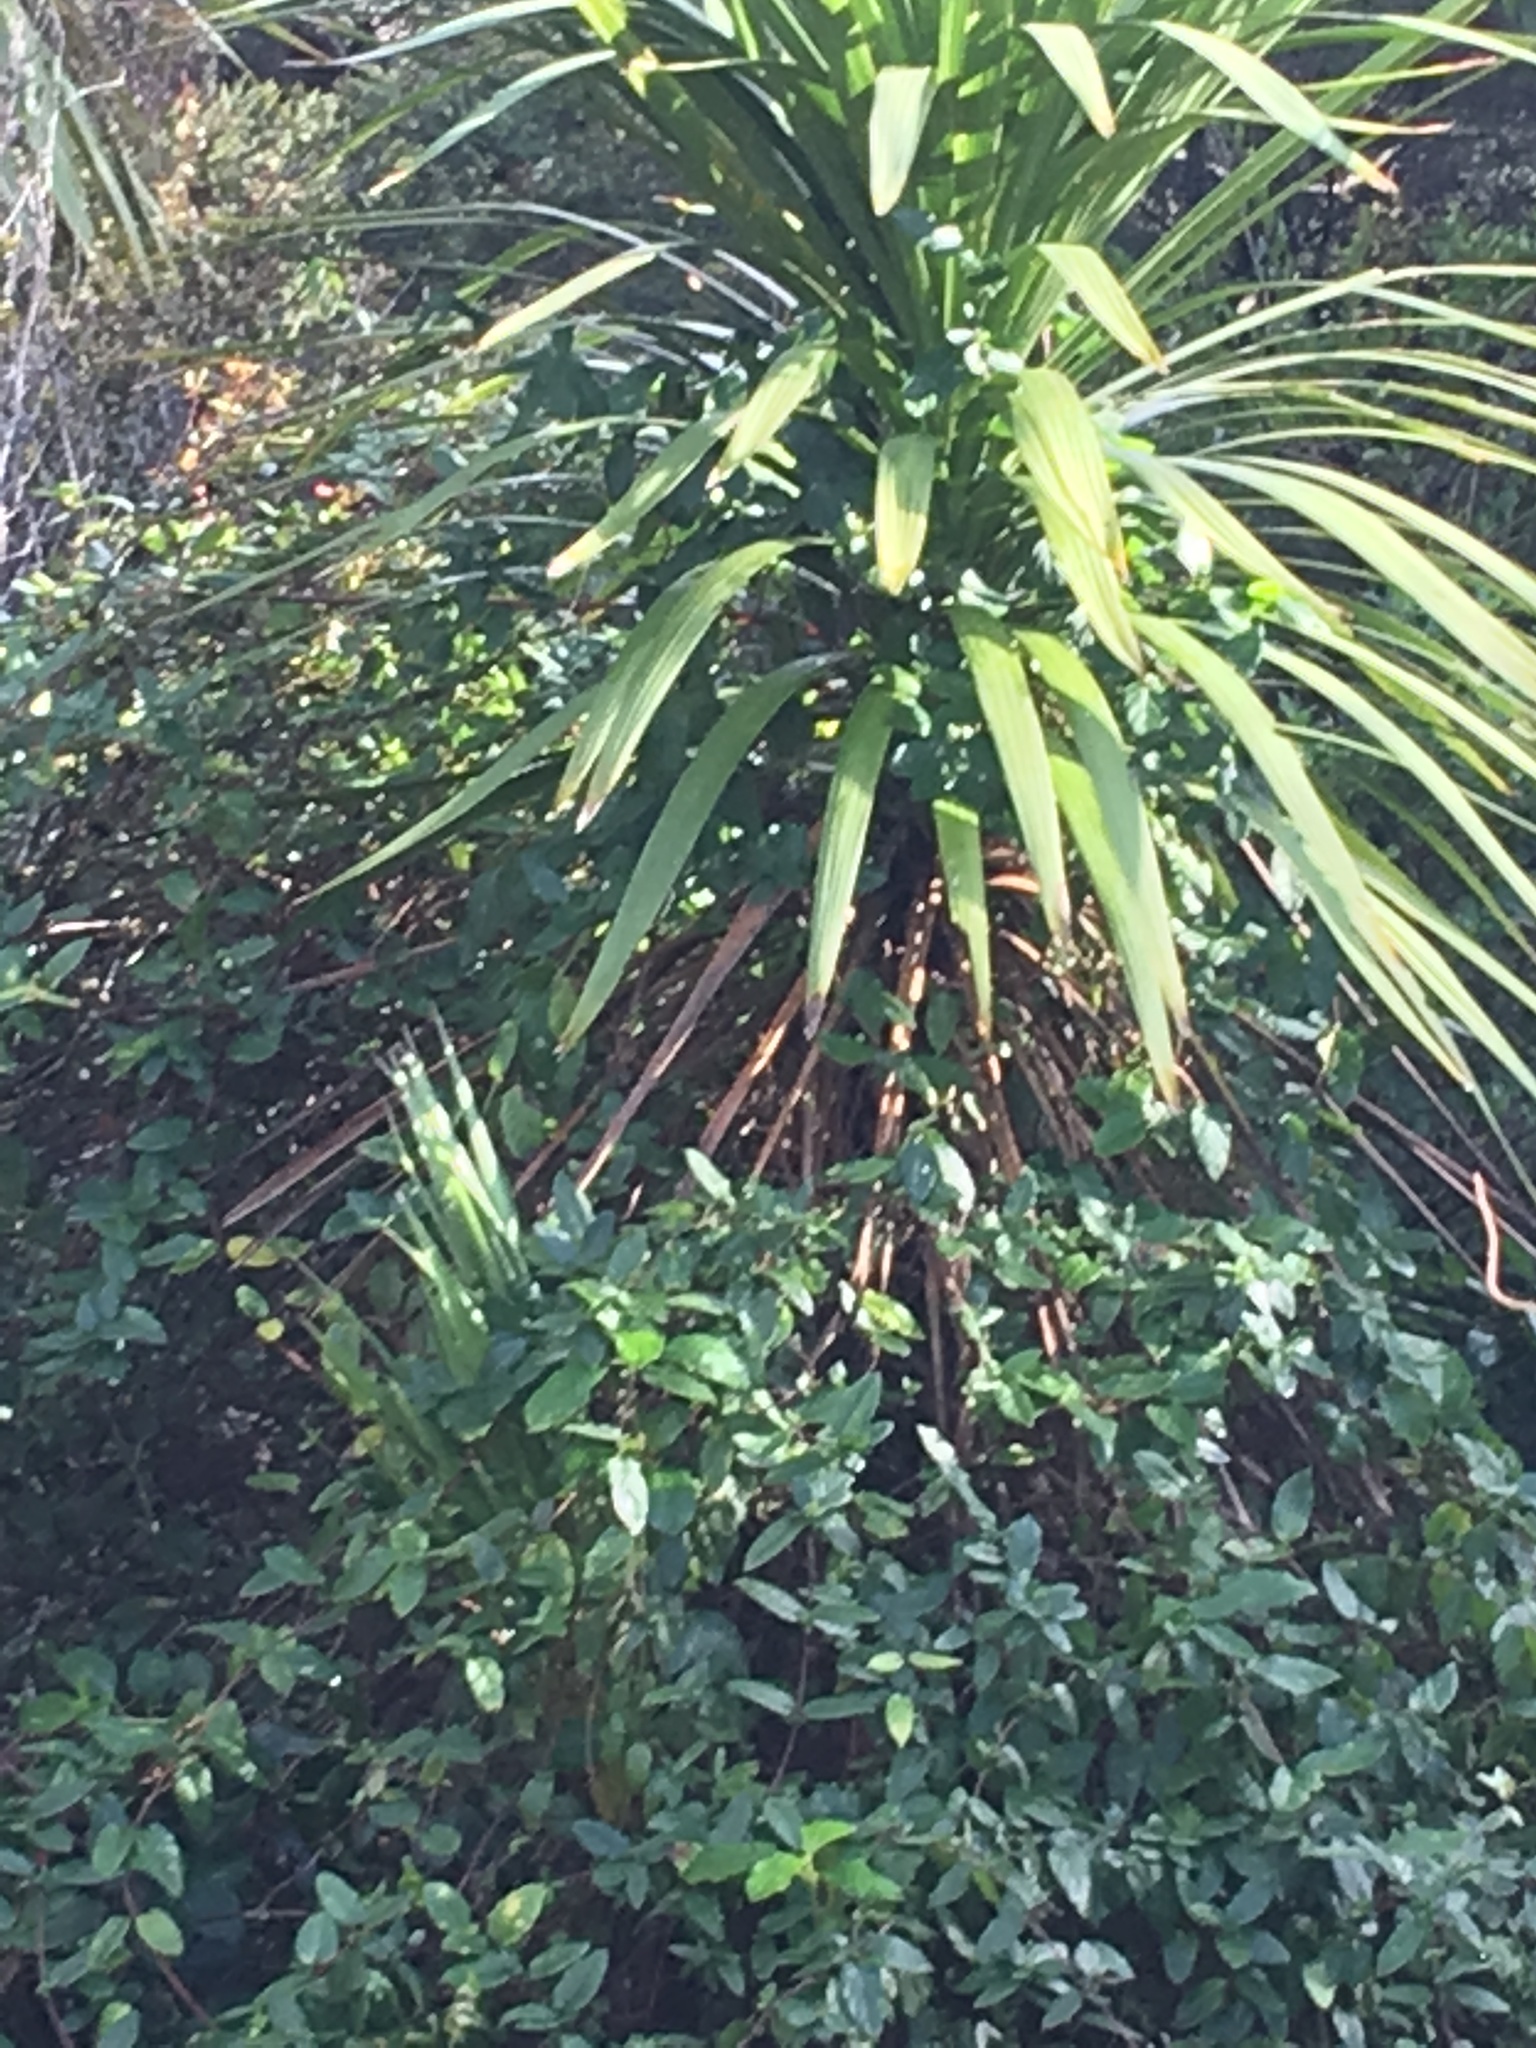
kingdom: Plantae
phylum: Tracheophyta
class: Liliopsida
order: Asparagales
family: Asparagaceae
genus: Cordyline
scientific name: Cordyline australis
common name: Cabbage-palm
